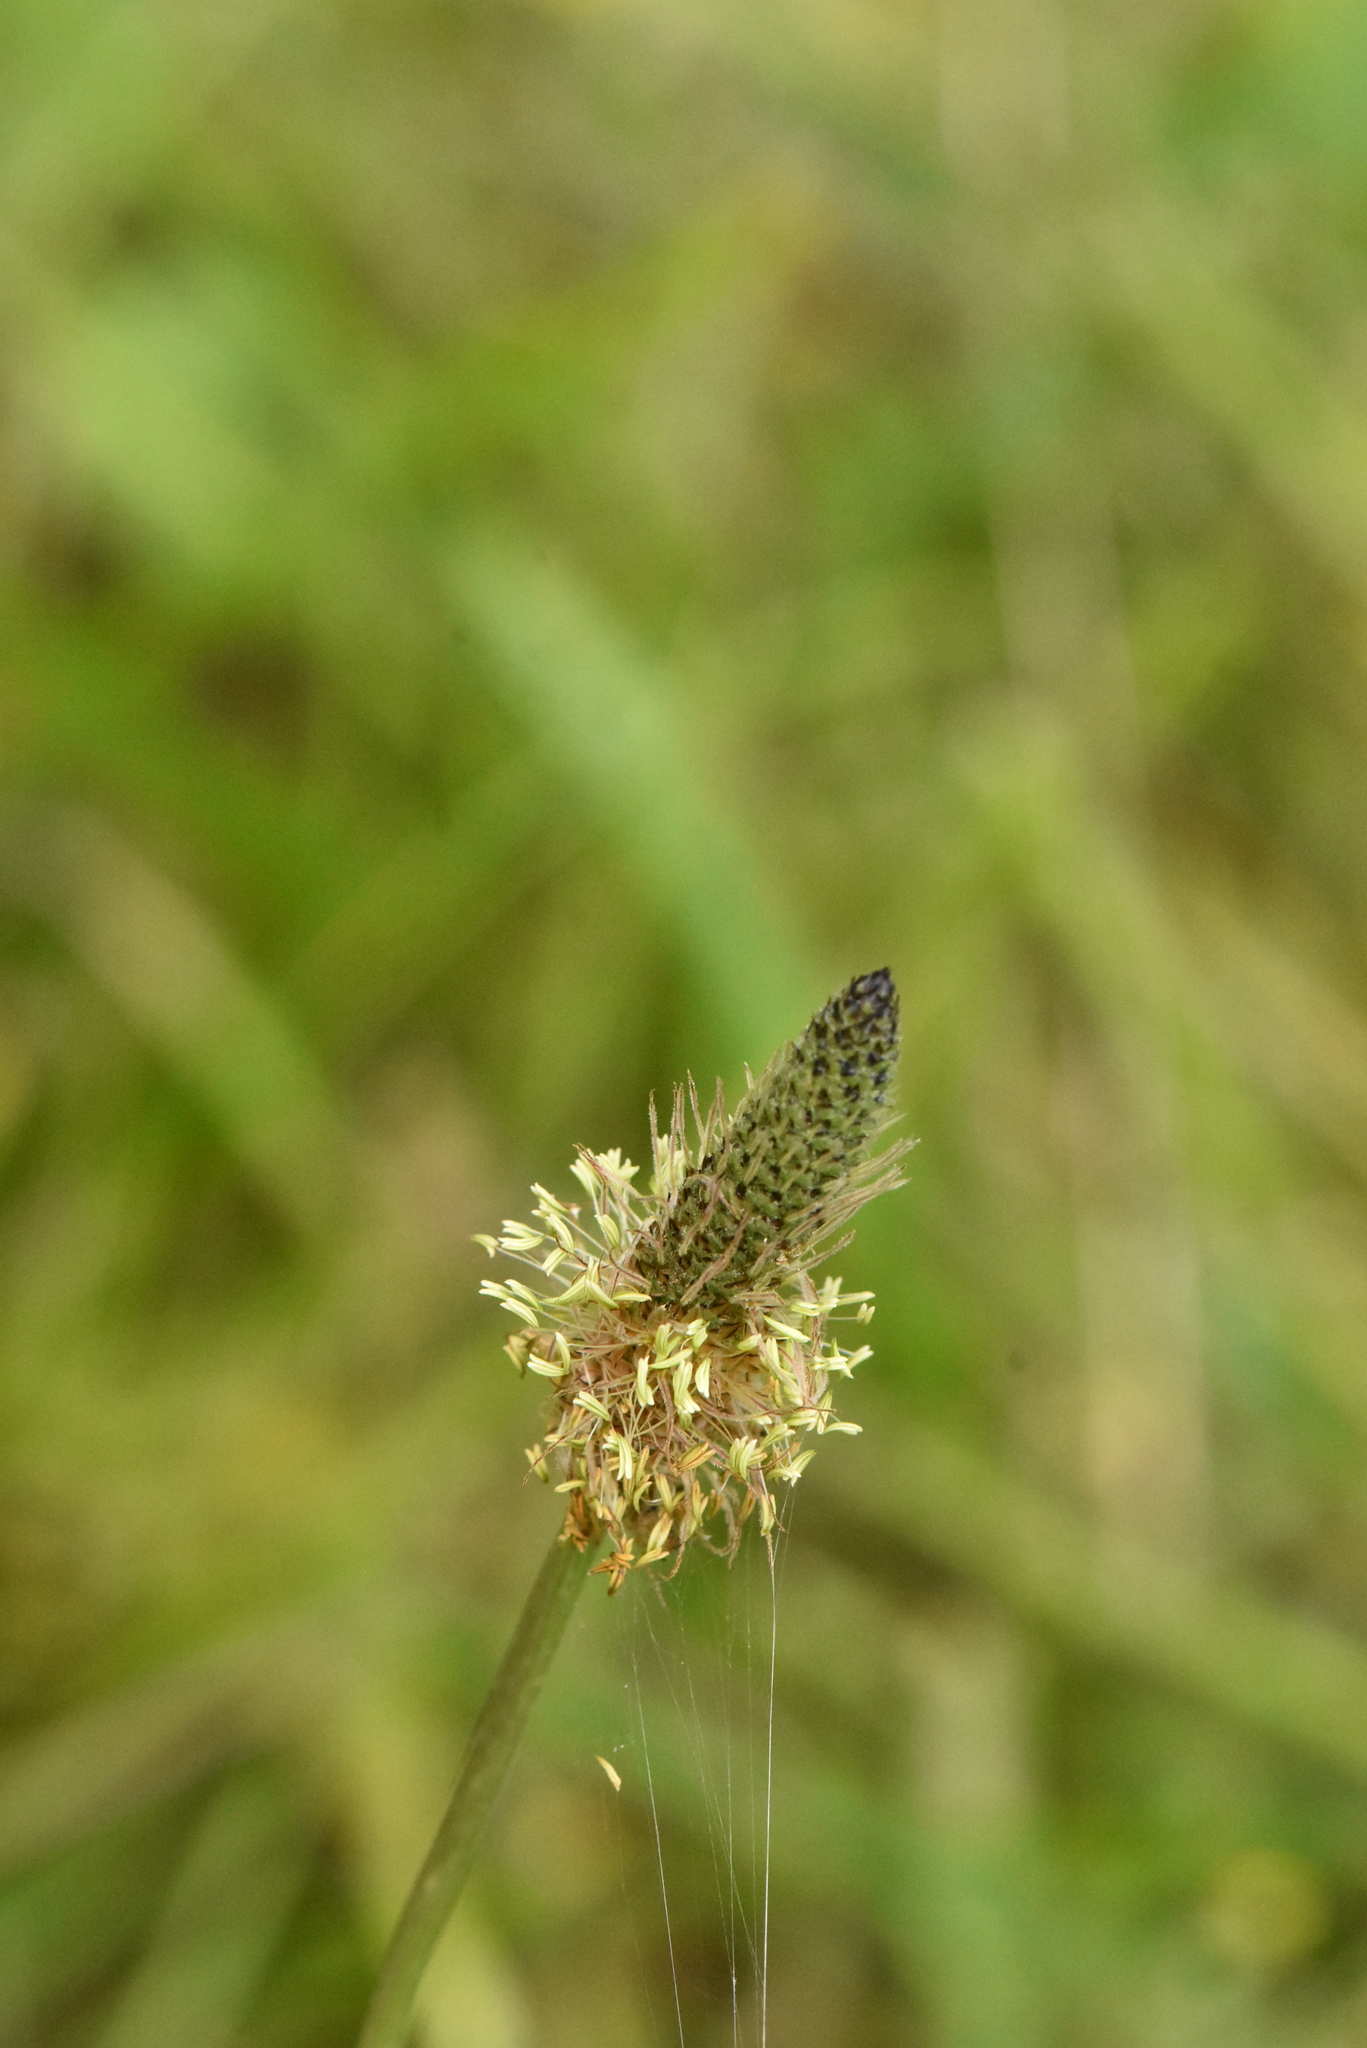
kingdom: Plantae
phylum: Tracheophyta
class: Magnoliopsida
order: Lamiales
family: Plantaginaceae
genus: Plantago
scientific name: Plantago lanceolata
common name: Ribwort plantain
